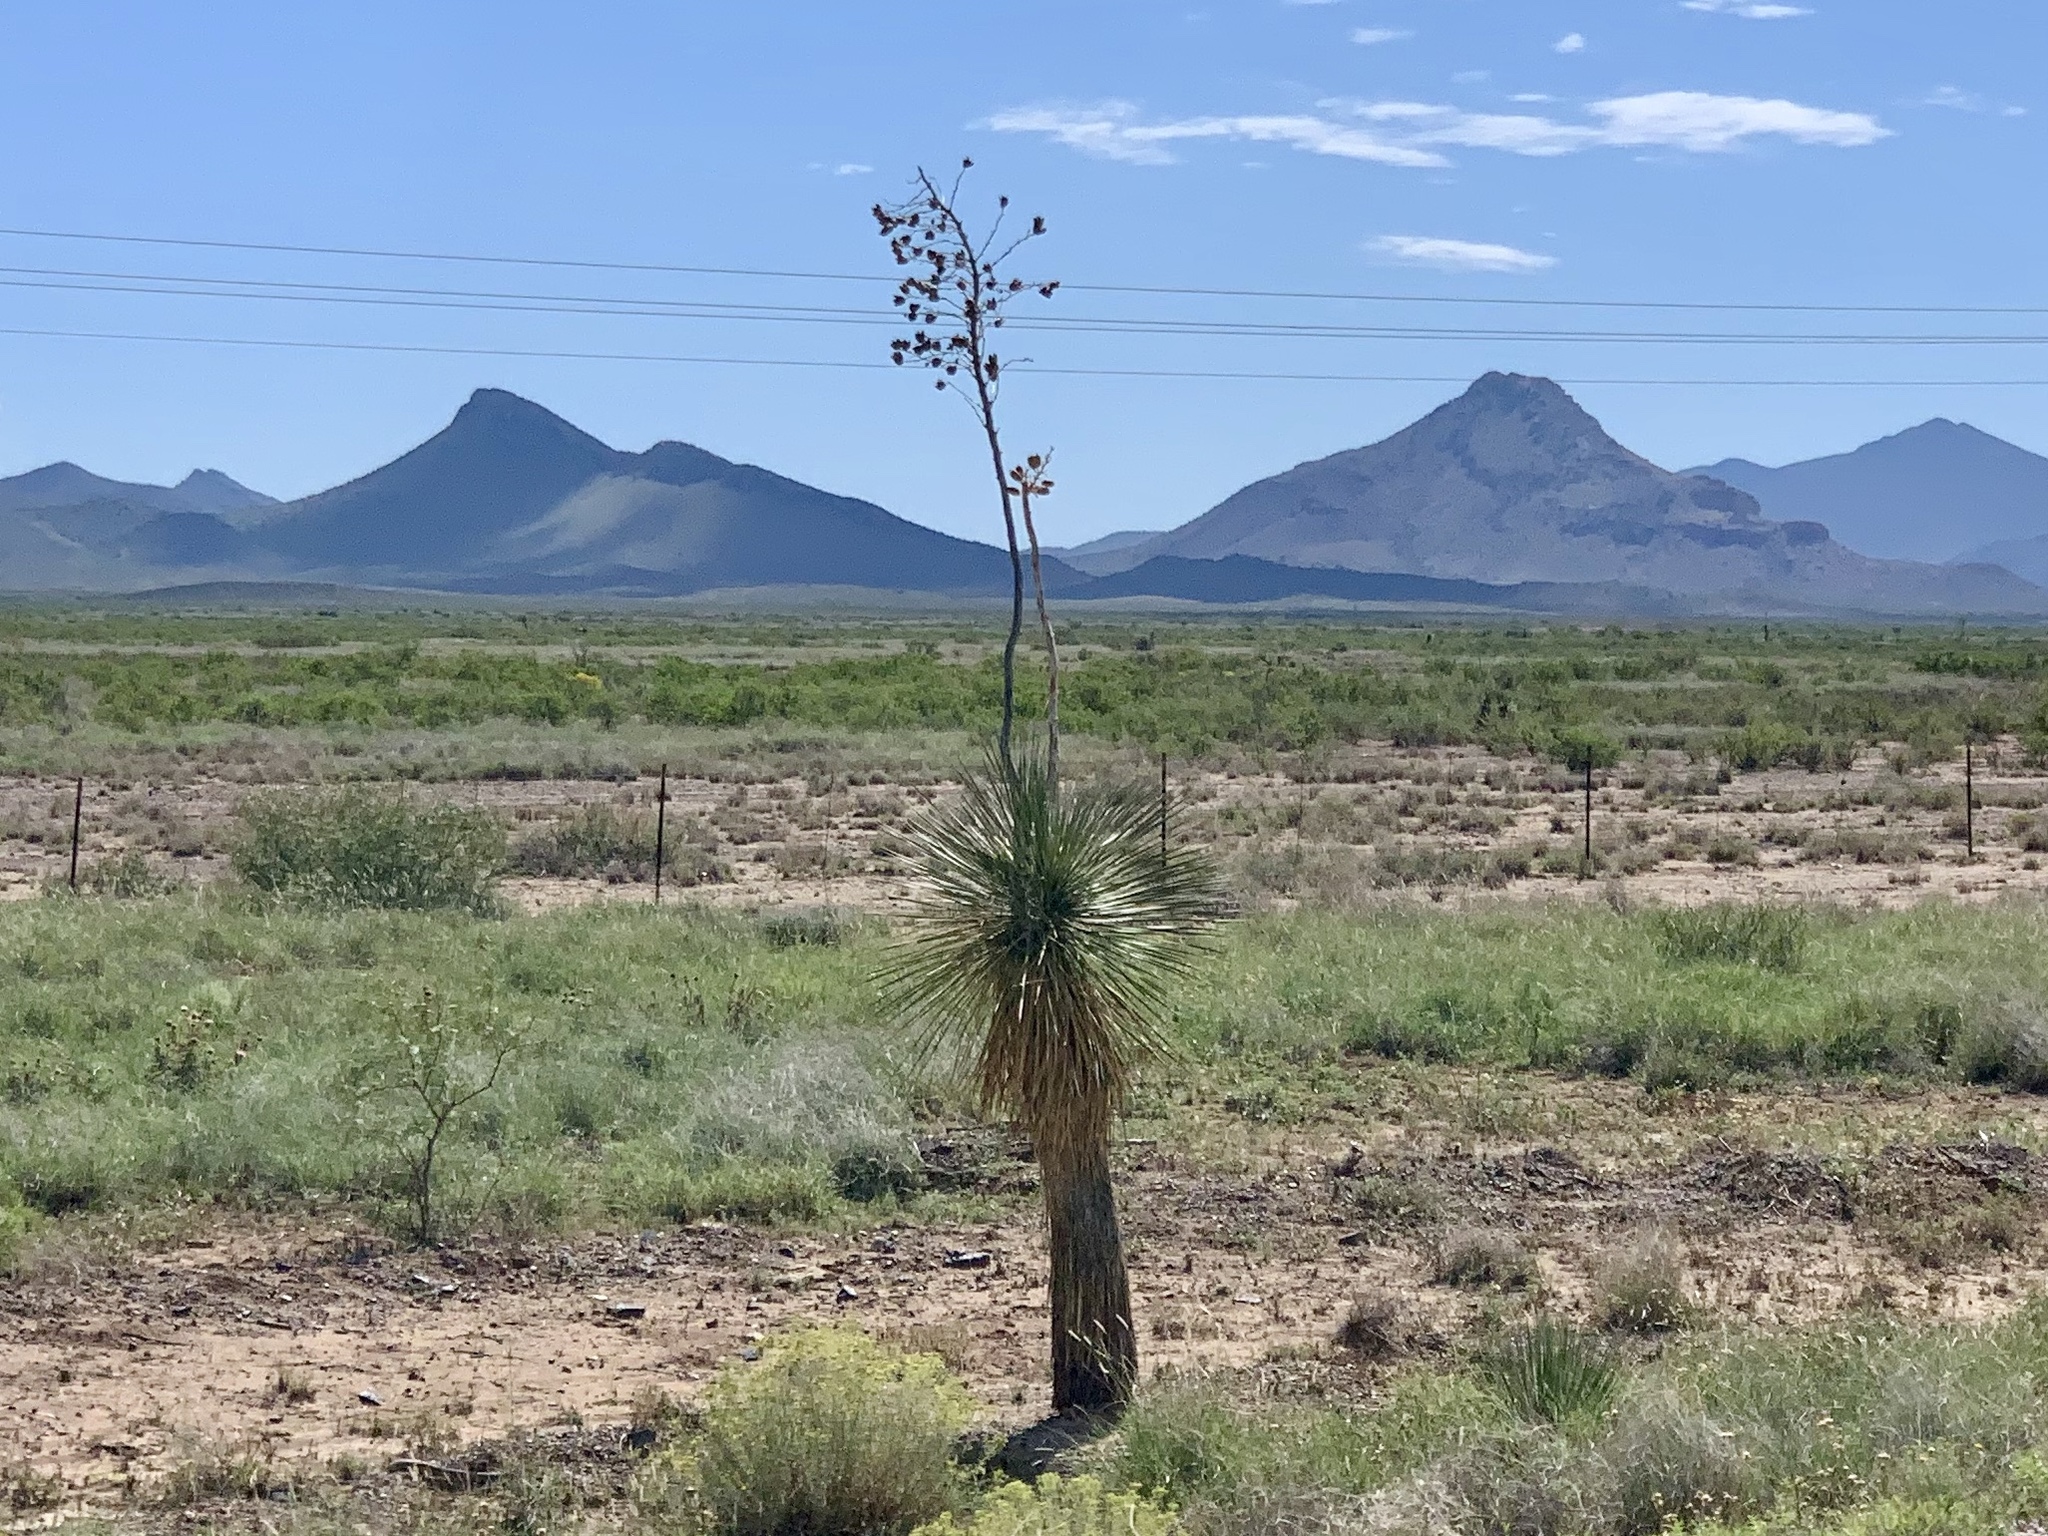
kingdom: Plantae
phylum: Tracheophyta
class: Liliopsida
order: Asparagales
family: Asparagaceae
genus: Yucca
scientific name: Yucca elata
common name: Palmella
